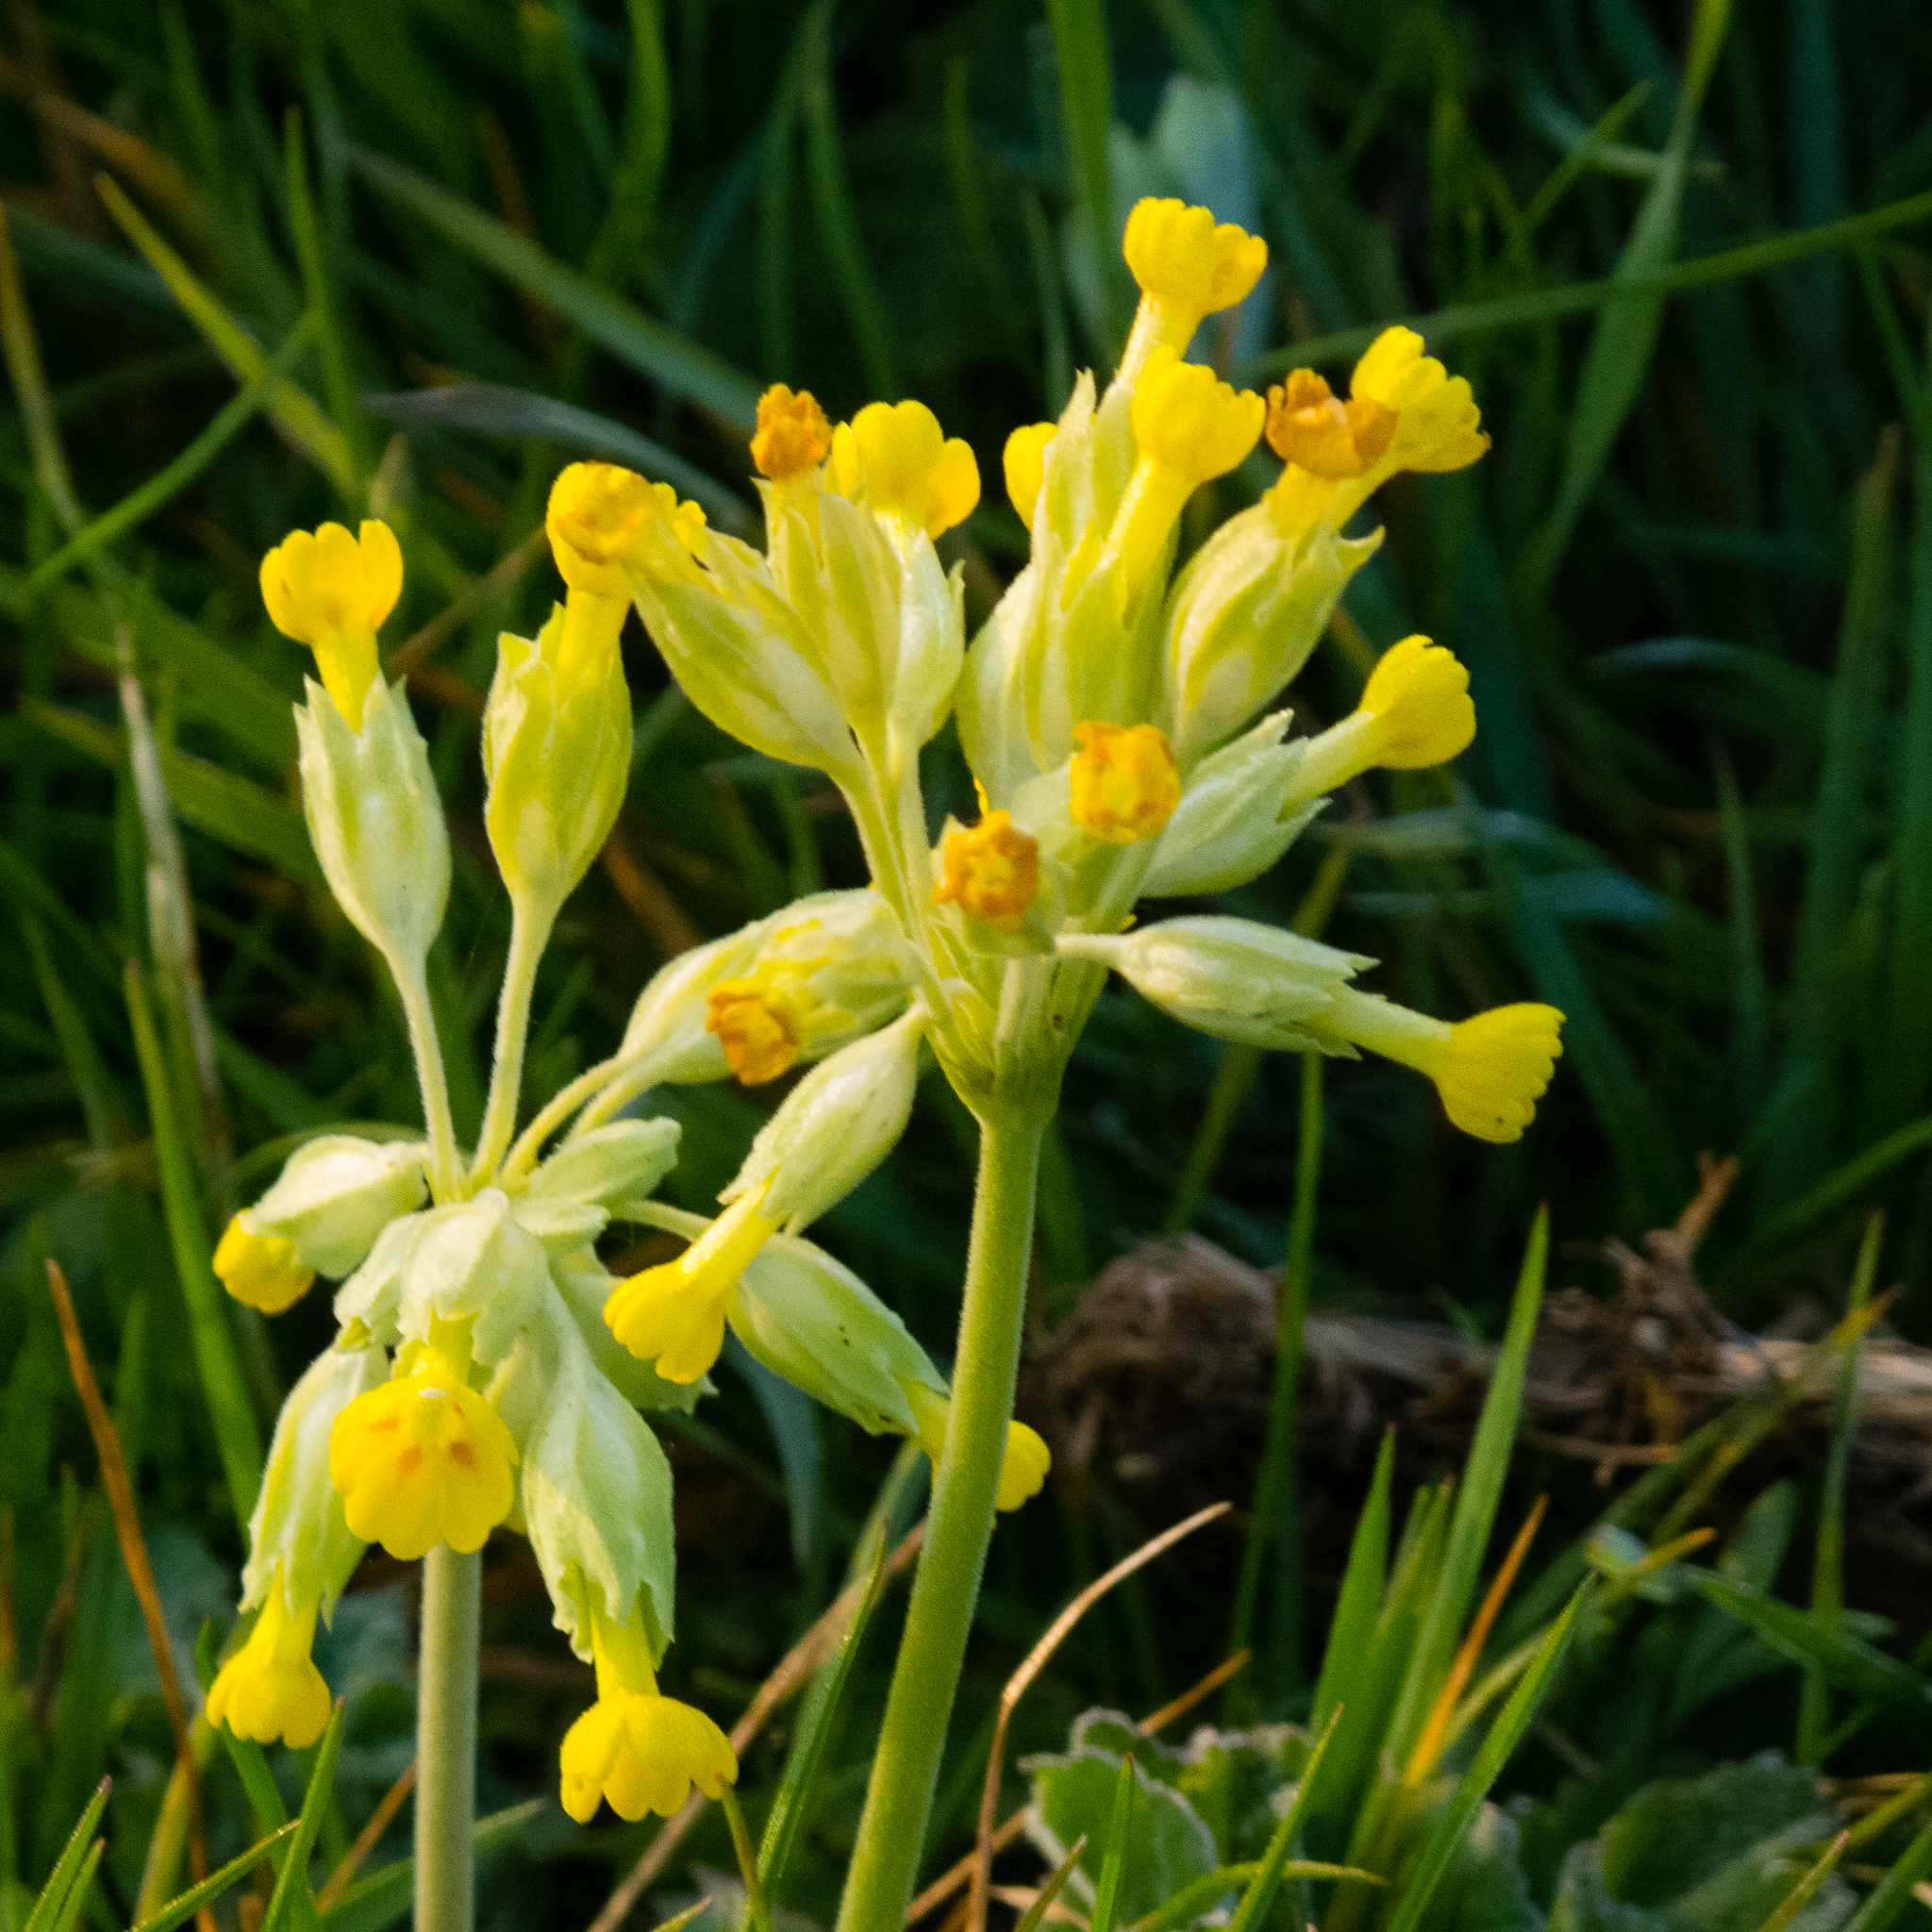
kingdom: Plantae
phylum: Tracheophyta
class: Magnoliopsida
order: Ericales
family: Primulaceae
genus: Primula
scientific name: Primula veris
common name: Cowslip
